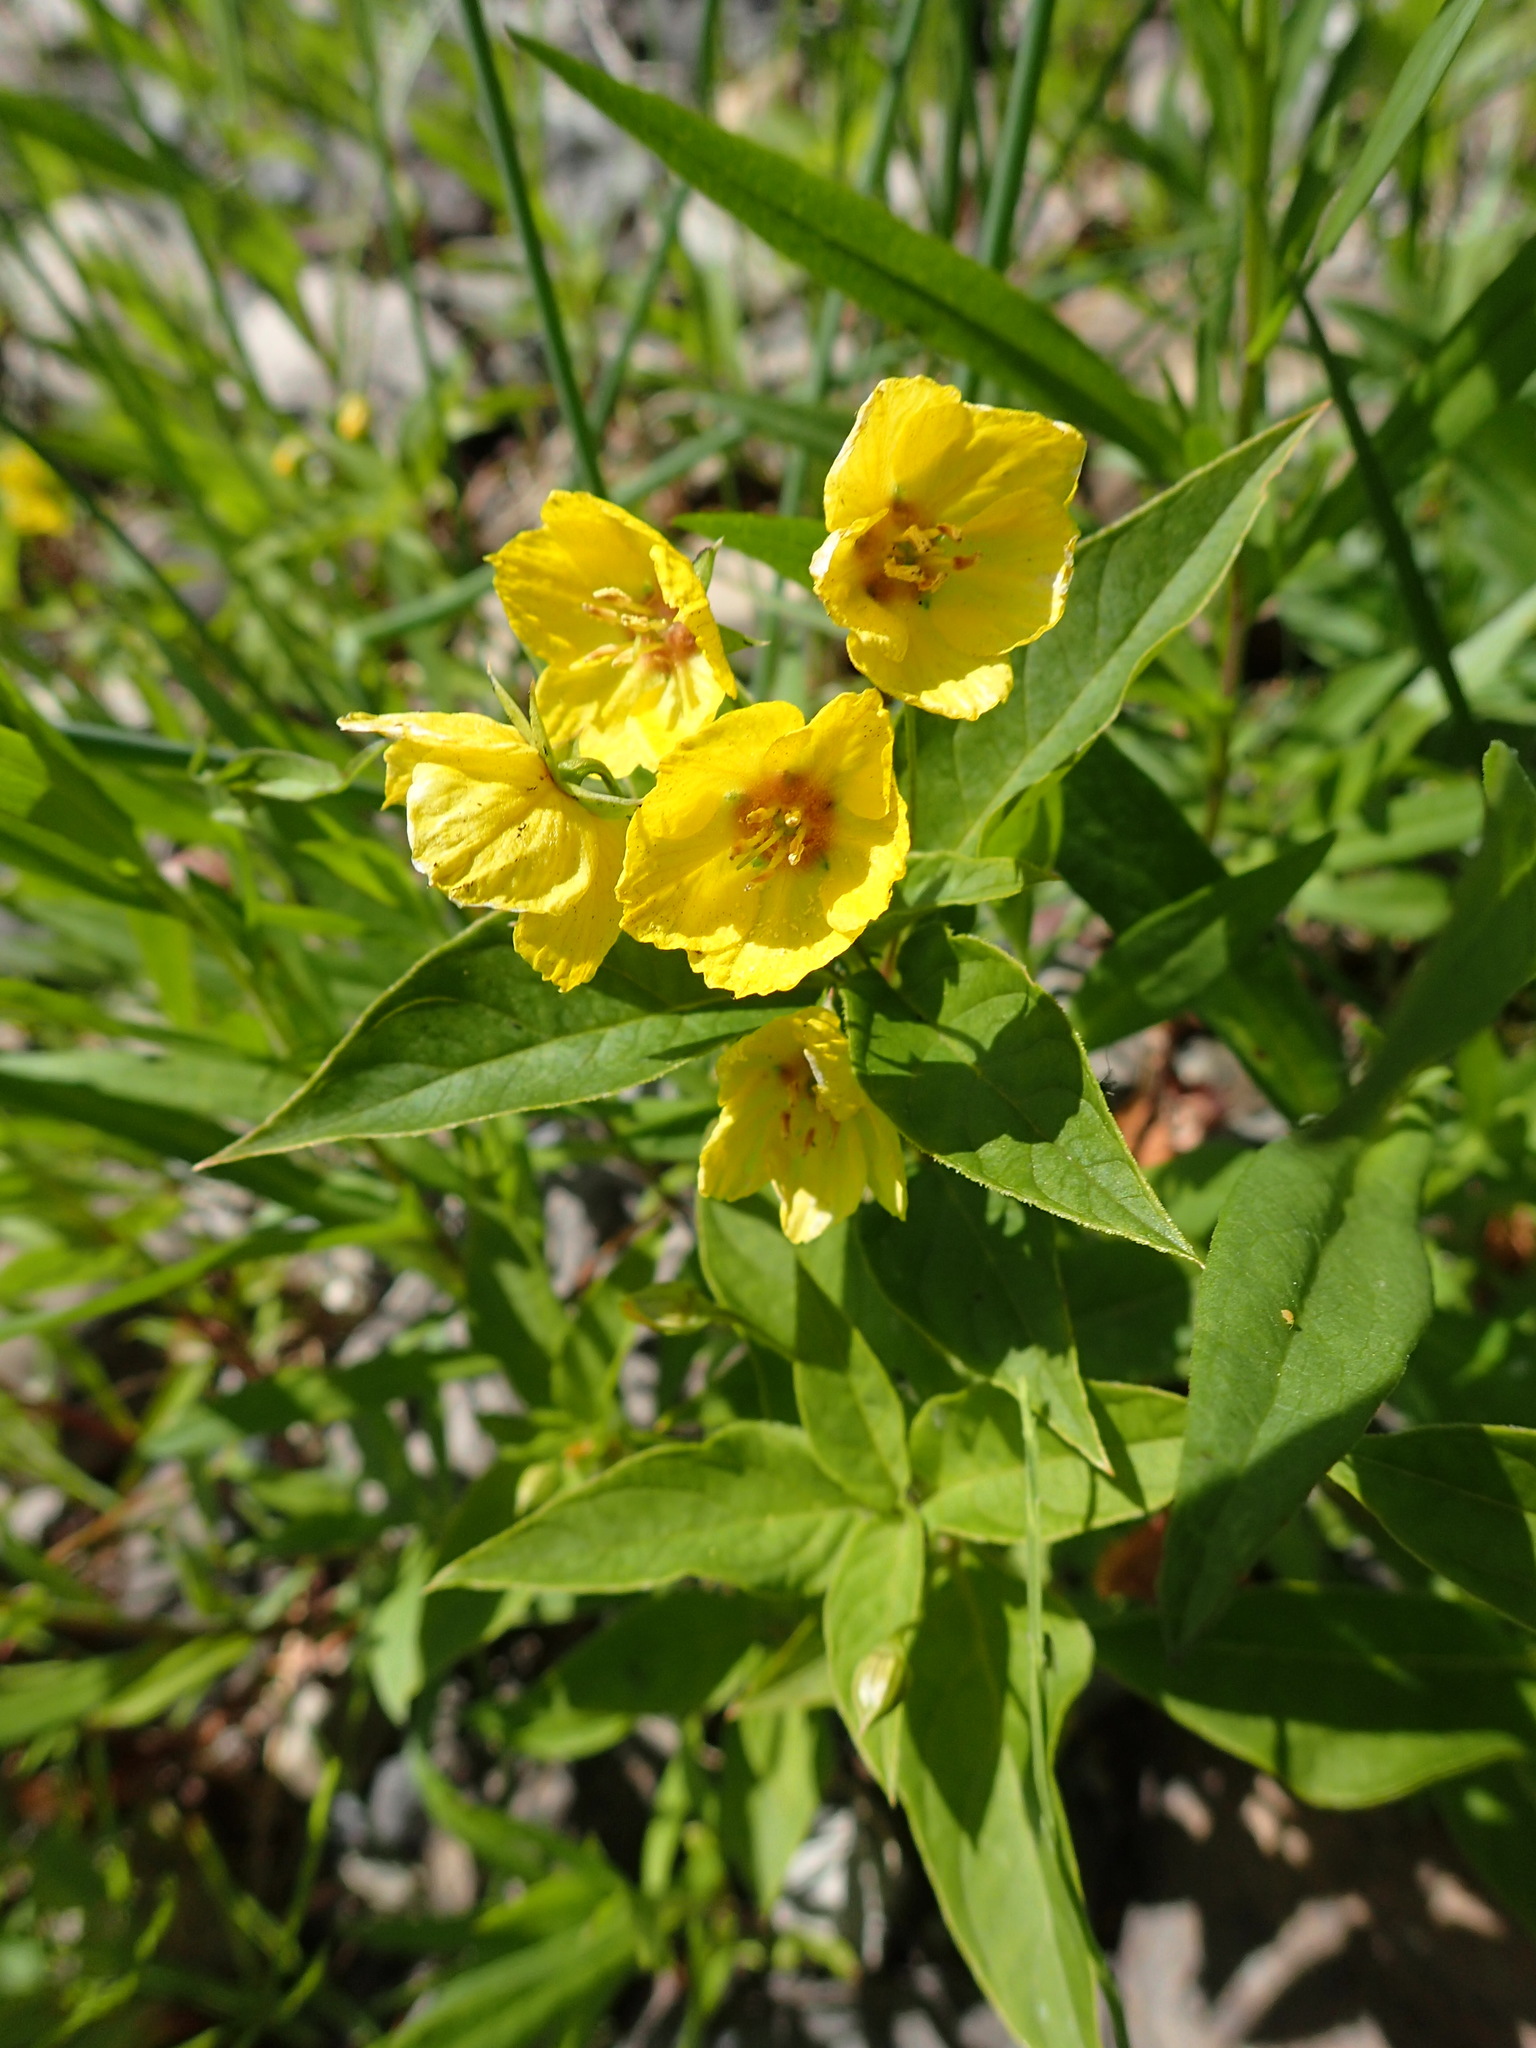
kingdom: Plantae
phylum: Tracheophyta
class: Magnoliopsida
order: Ericales
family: Primulaceae
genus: Lysimachia
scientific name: Lysimachia ciliata
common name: Fringed loosestrife
